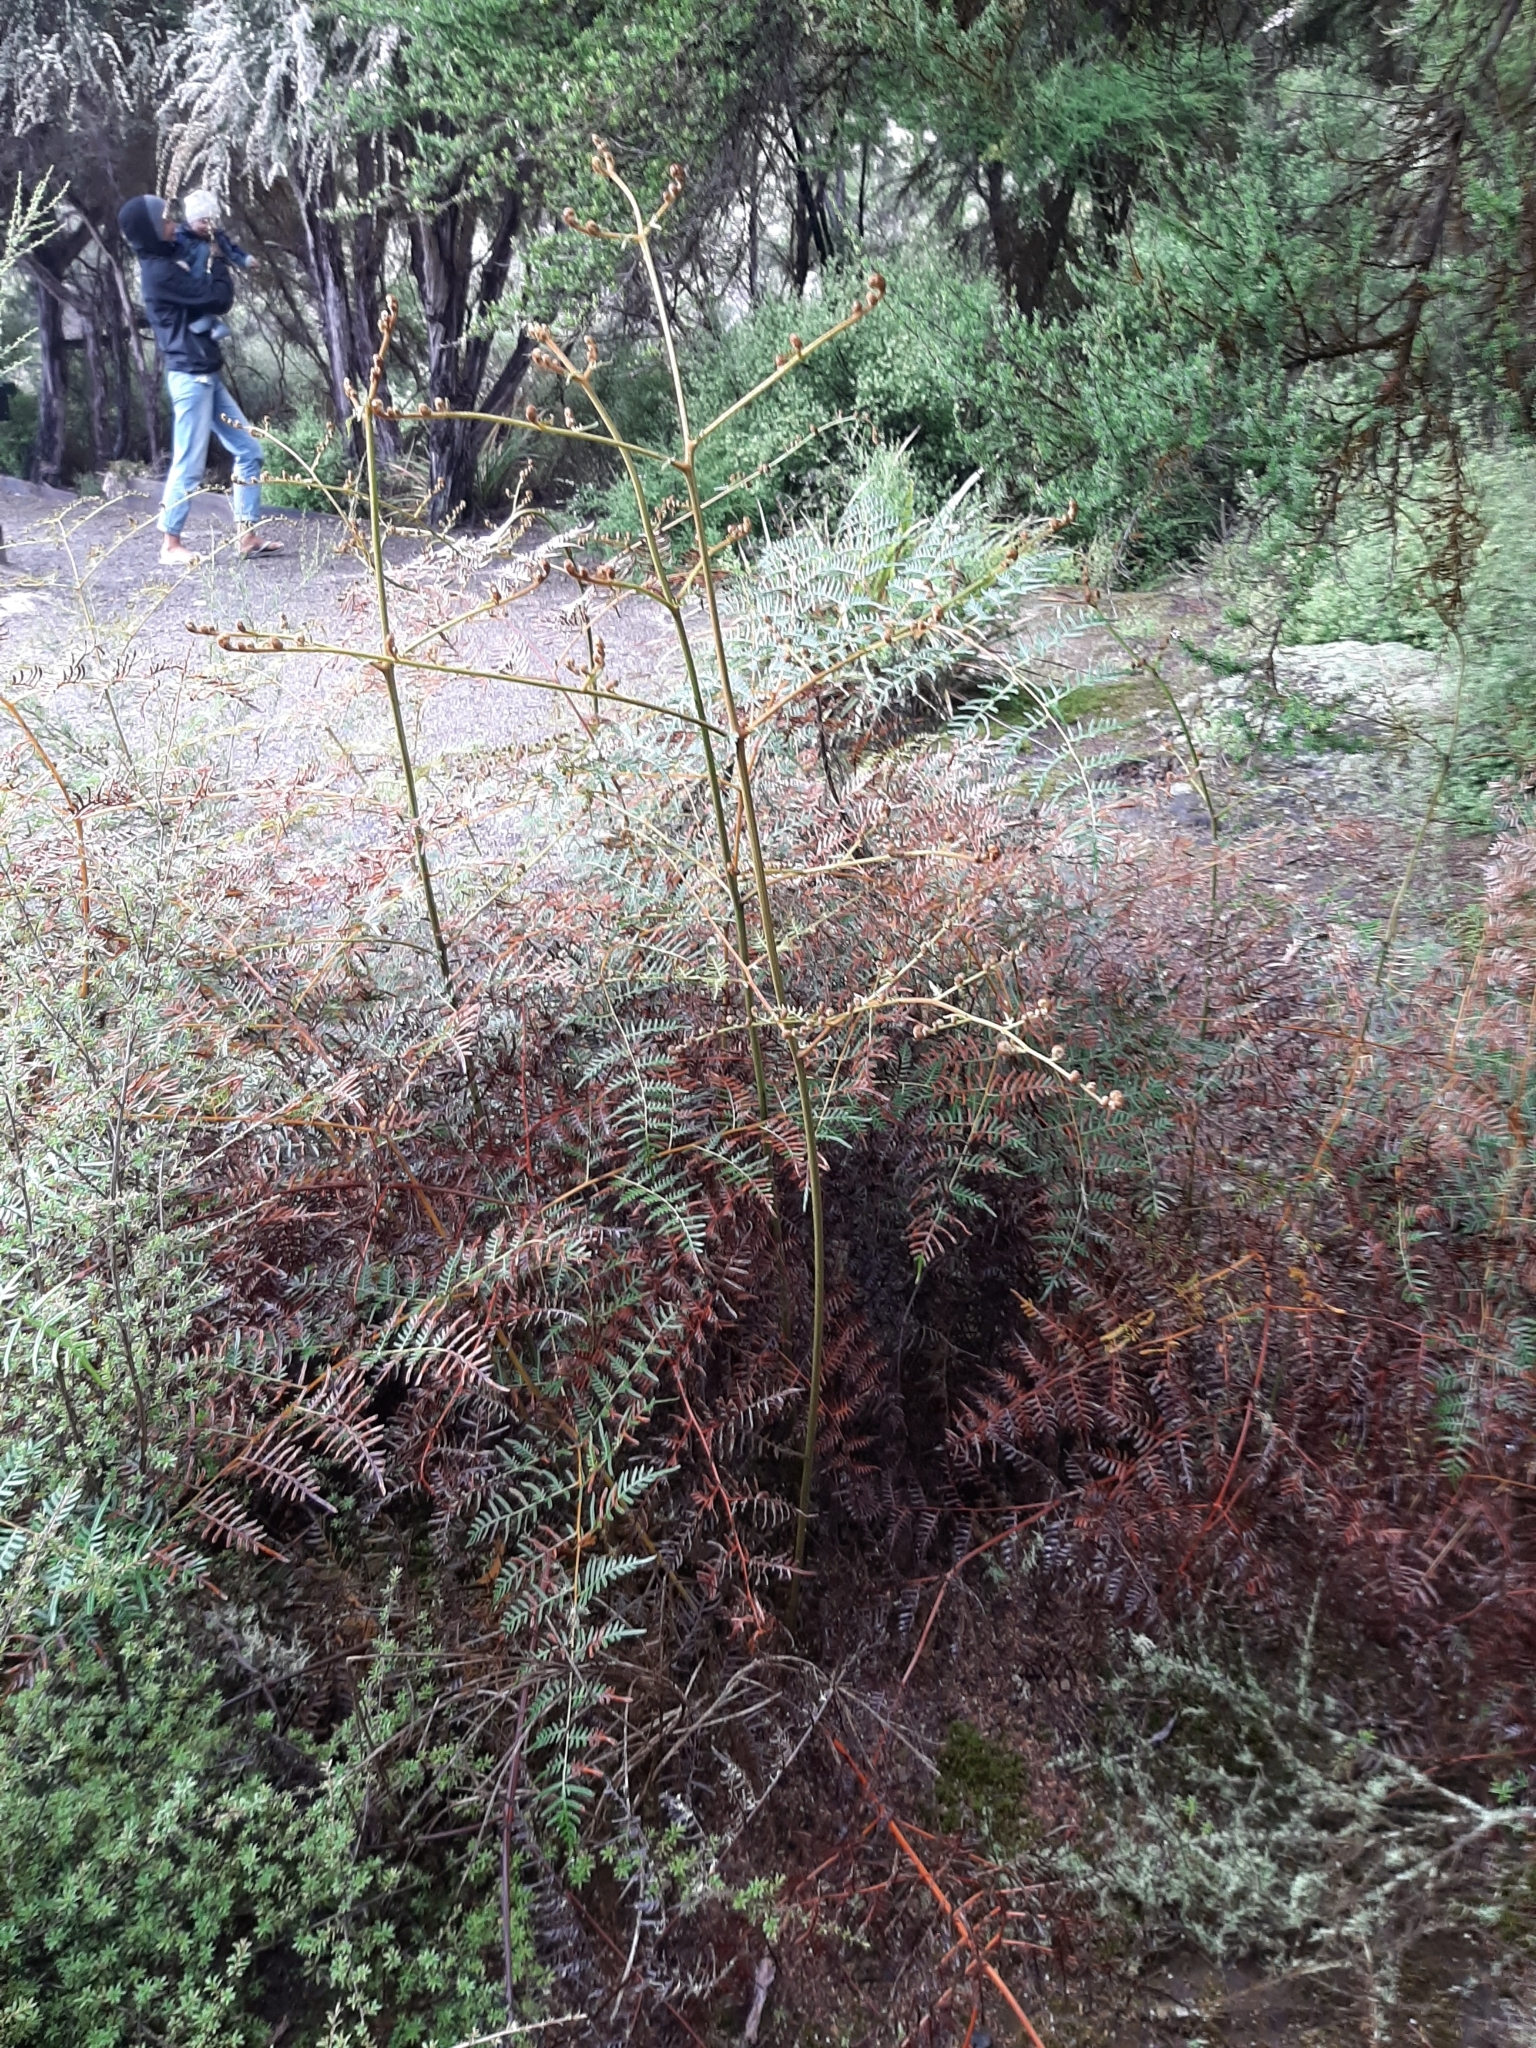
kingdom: Plantae
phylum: Tracheophyta
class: Polypodiopsida
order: Polypodiales
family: Dennstaedtiaceae
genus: Pteridium
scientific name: Pteridium esculentum
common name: Bracken fern
